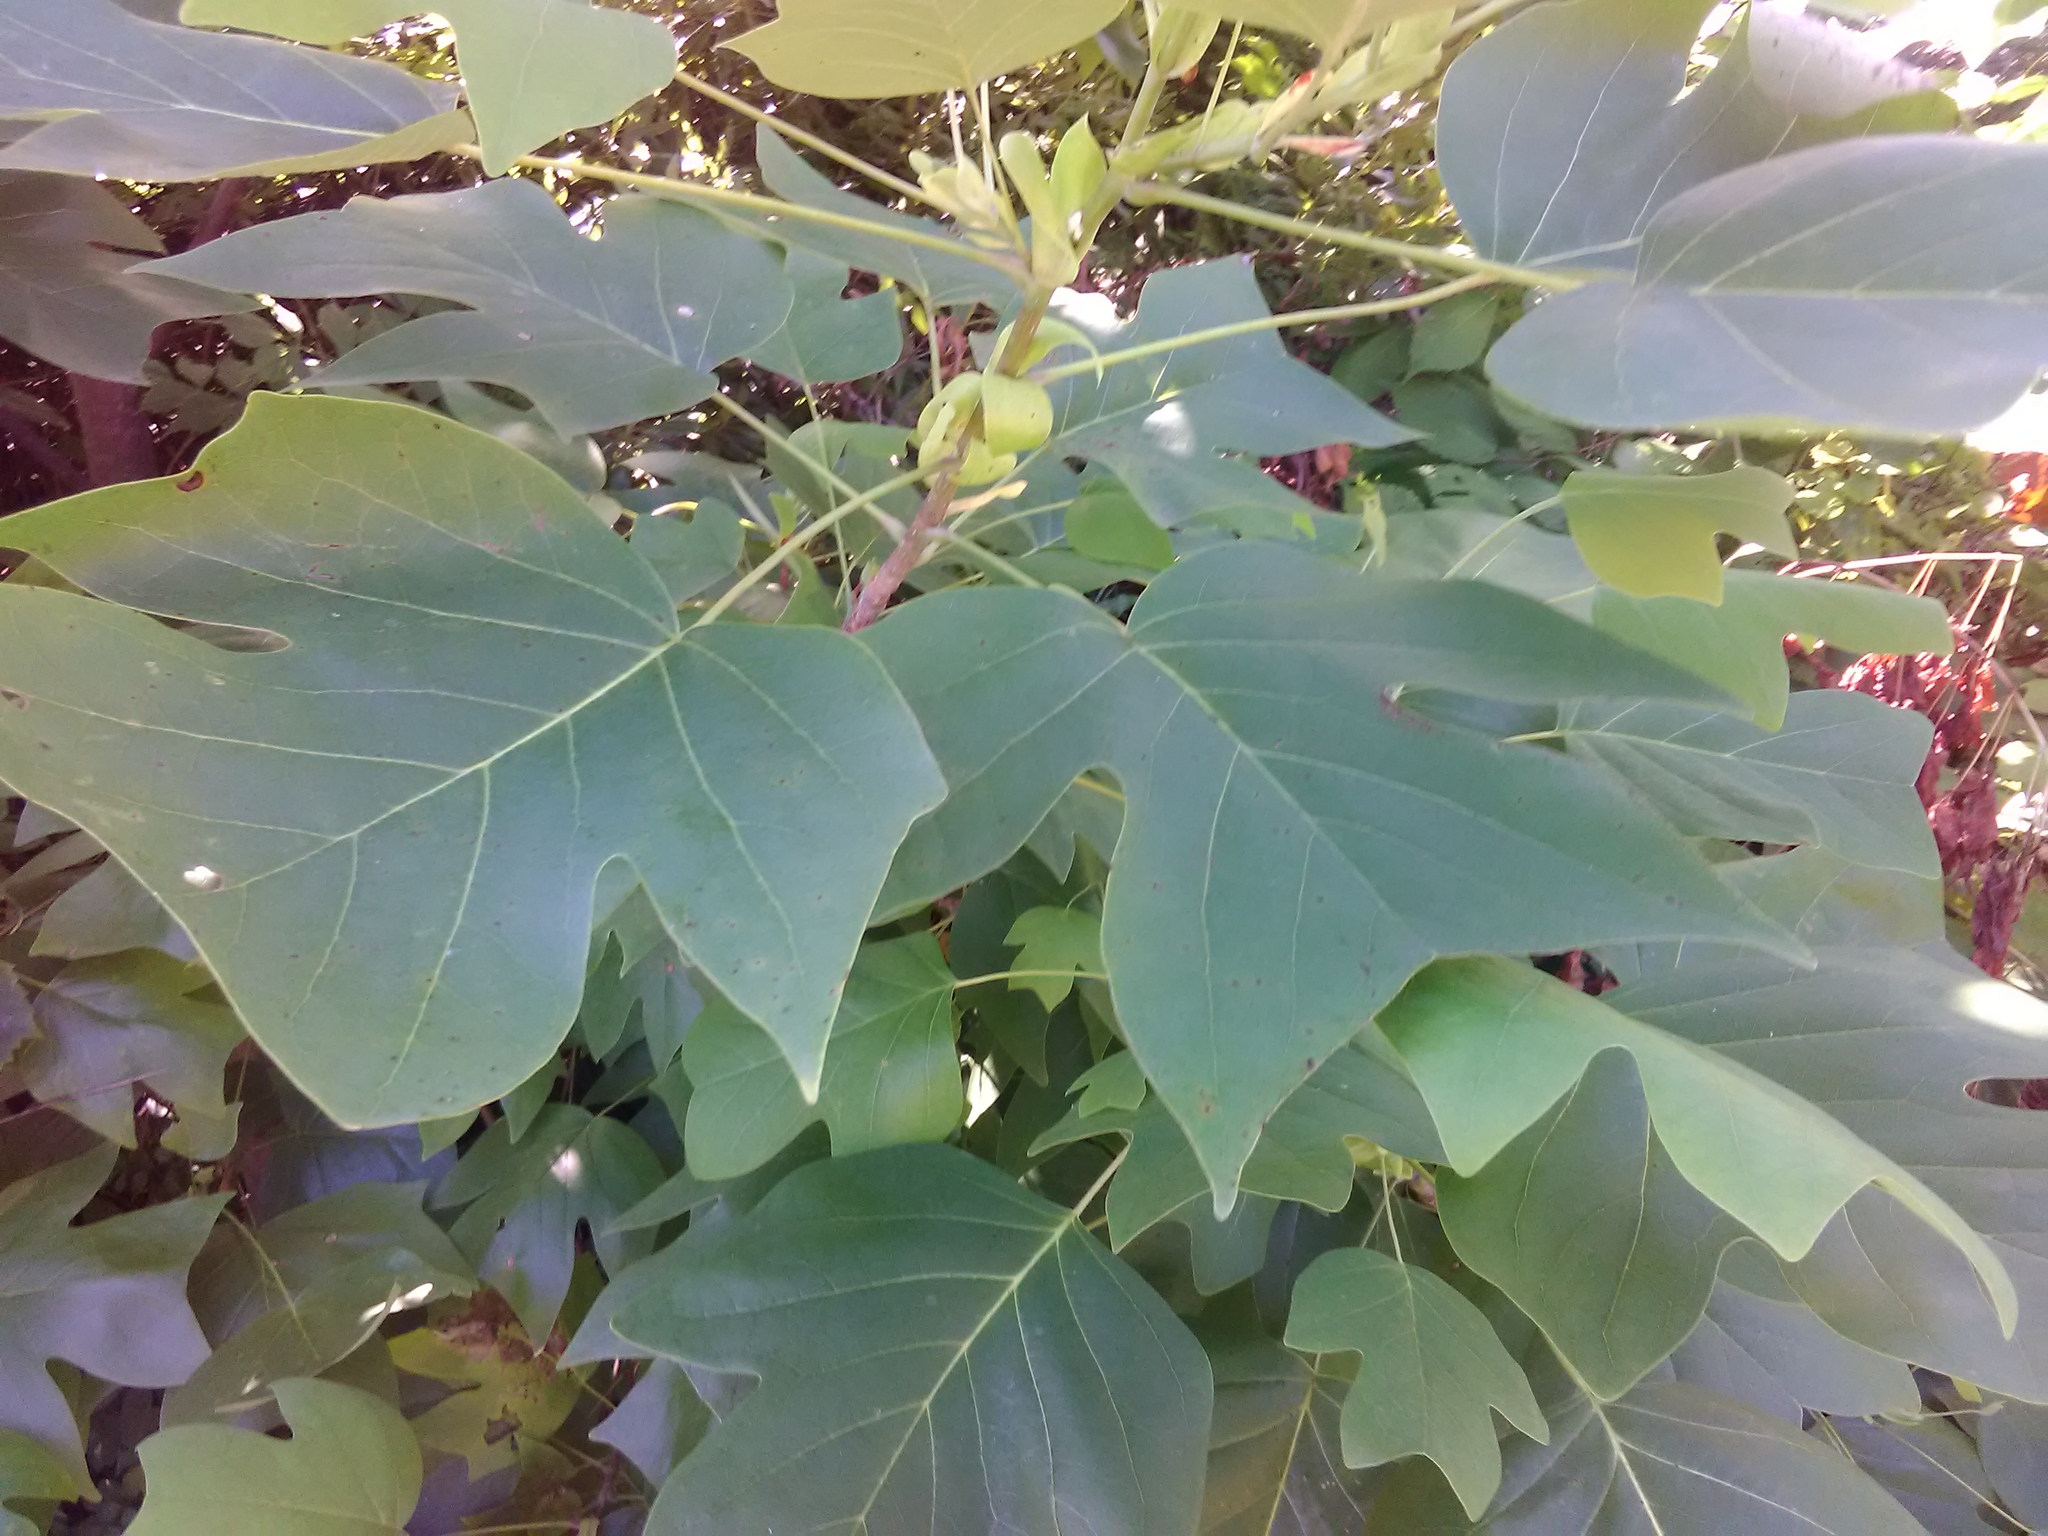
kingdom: Plantae
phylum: Tracheophyta
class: Magnoliopsida
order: Magnoliales
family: Magnoliaceae
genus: Liriodendron
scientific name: Liriodendron tulipifera
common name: Tulip tree
